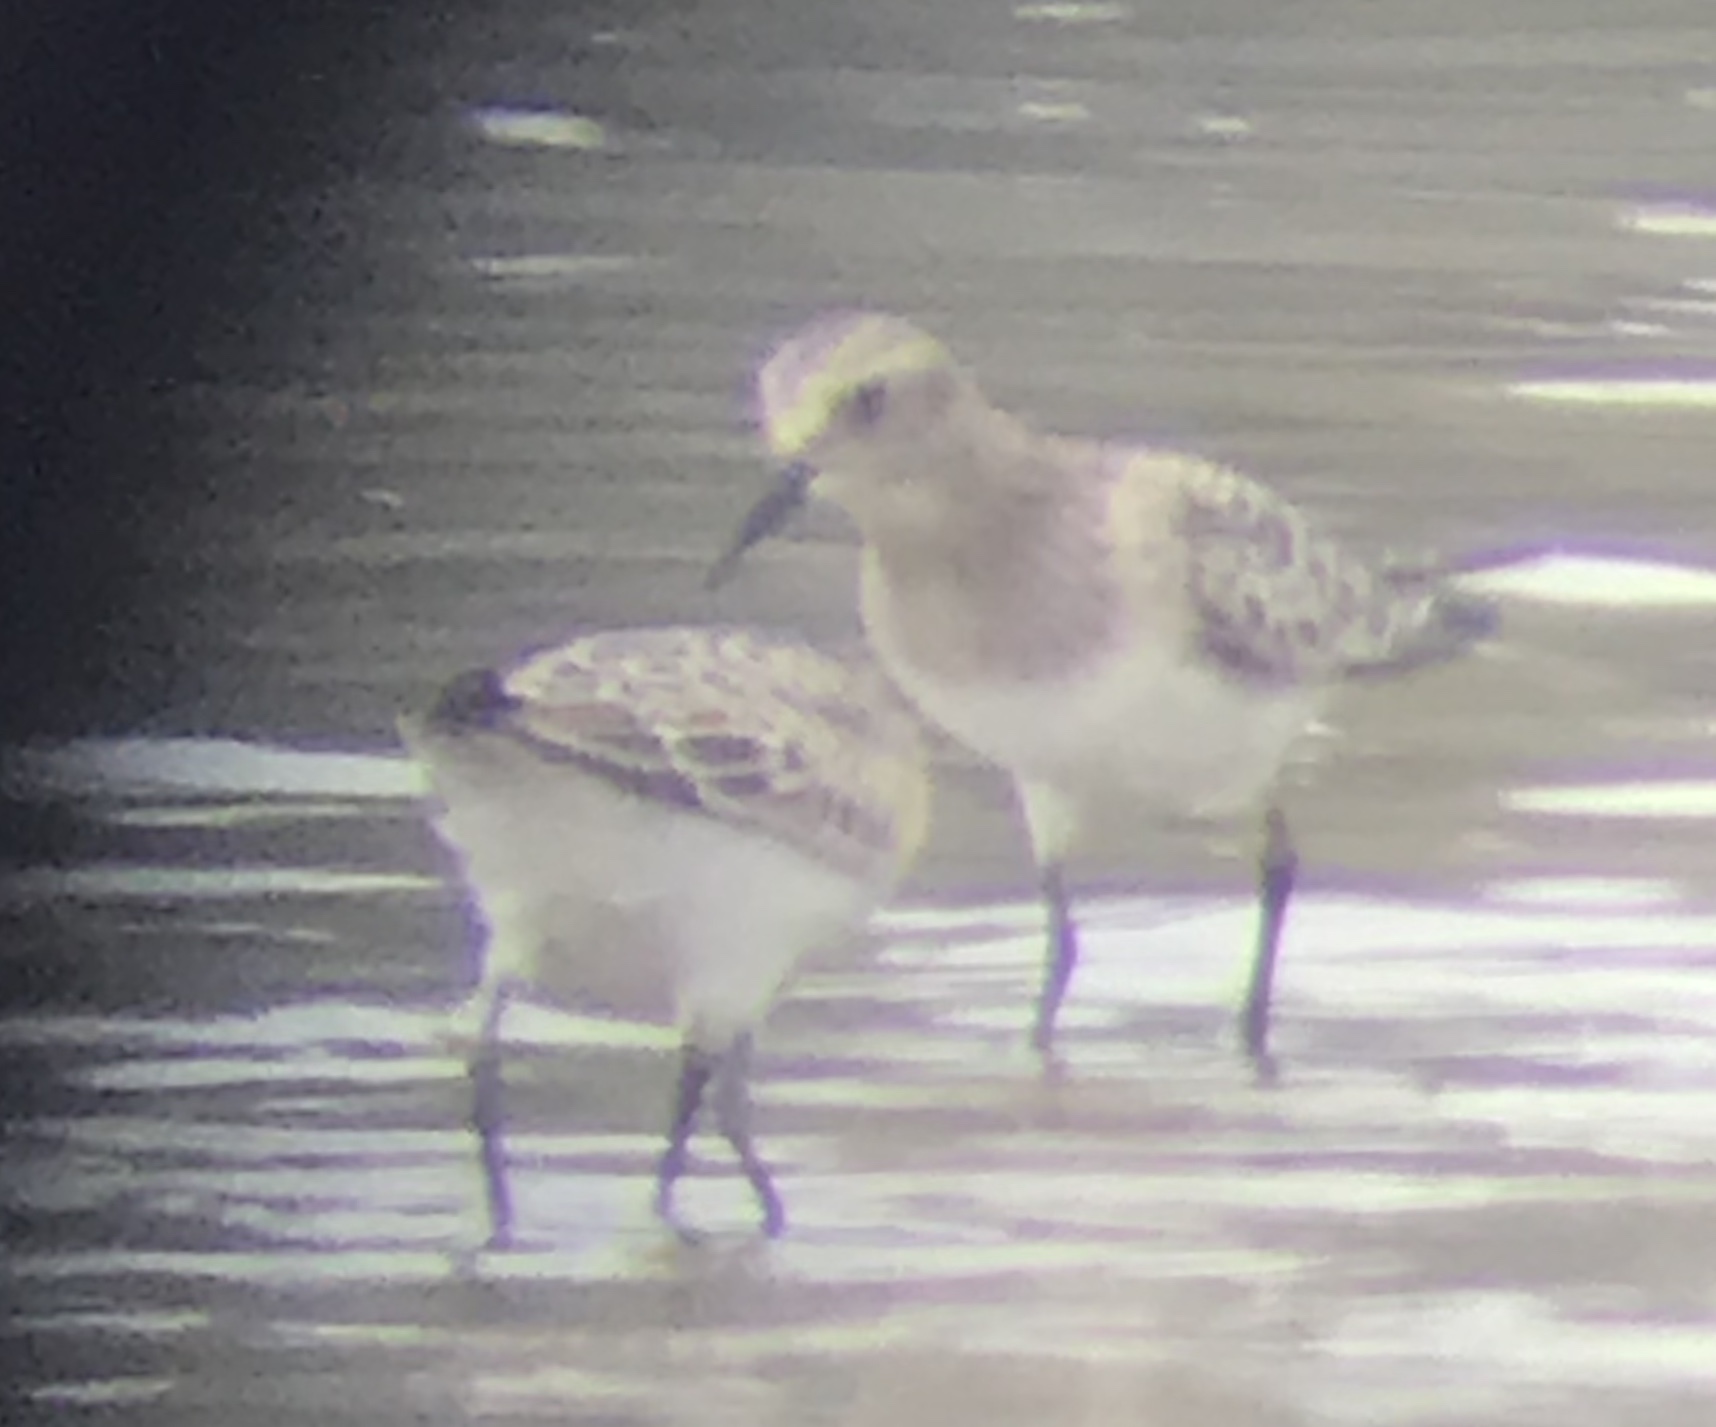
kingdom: Animalia
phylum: Chordata
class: Aves
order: Charadriiformes
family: Scolopacidae
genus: Calidris
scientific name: Calidris bairdii
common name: Baird's sandpiper
